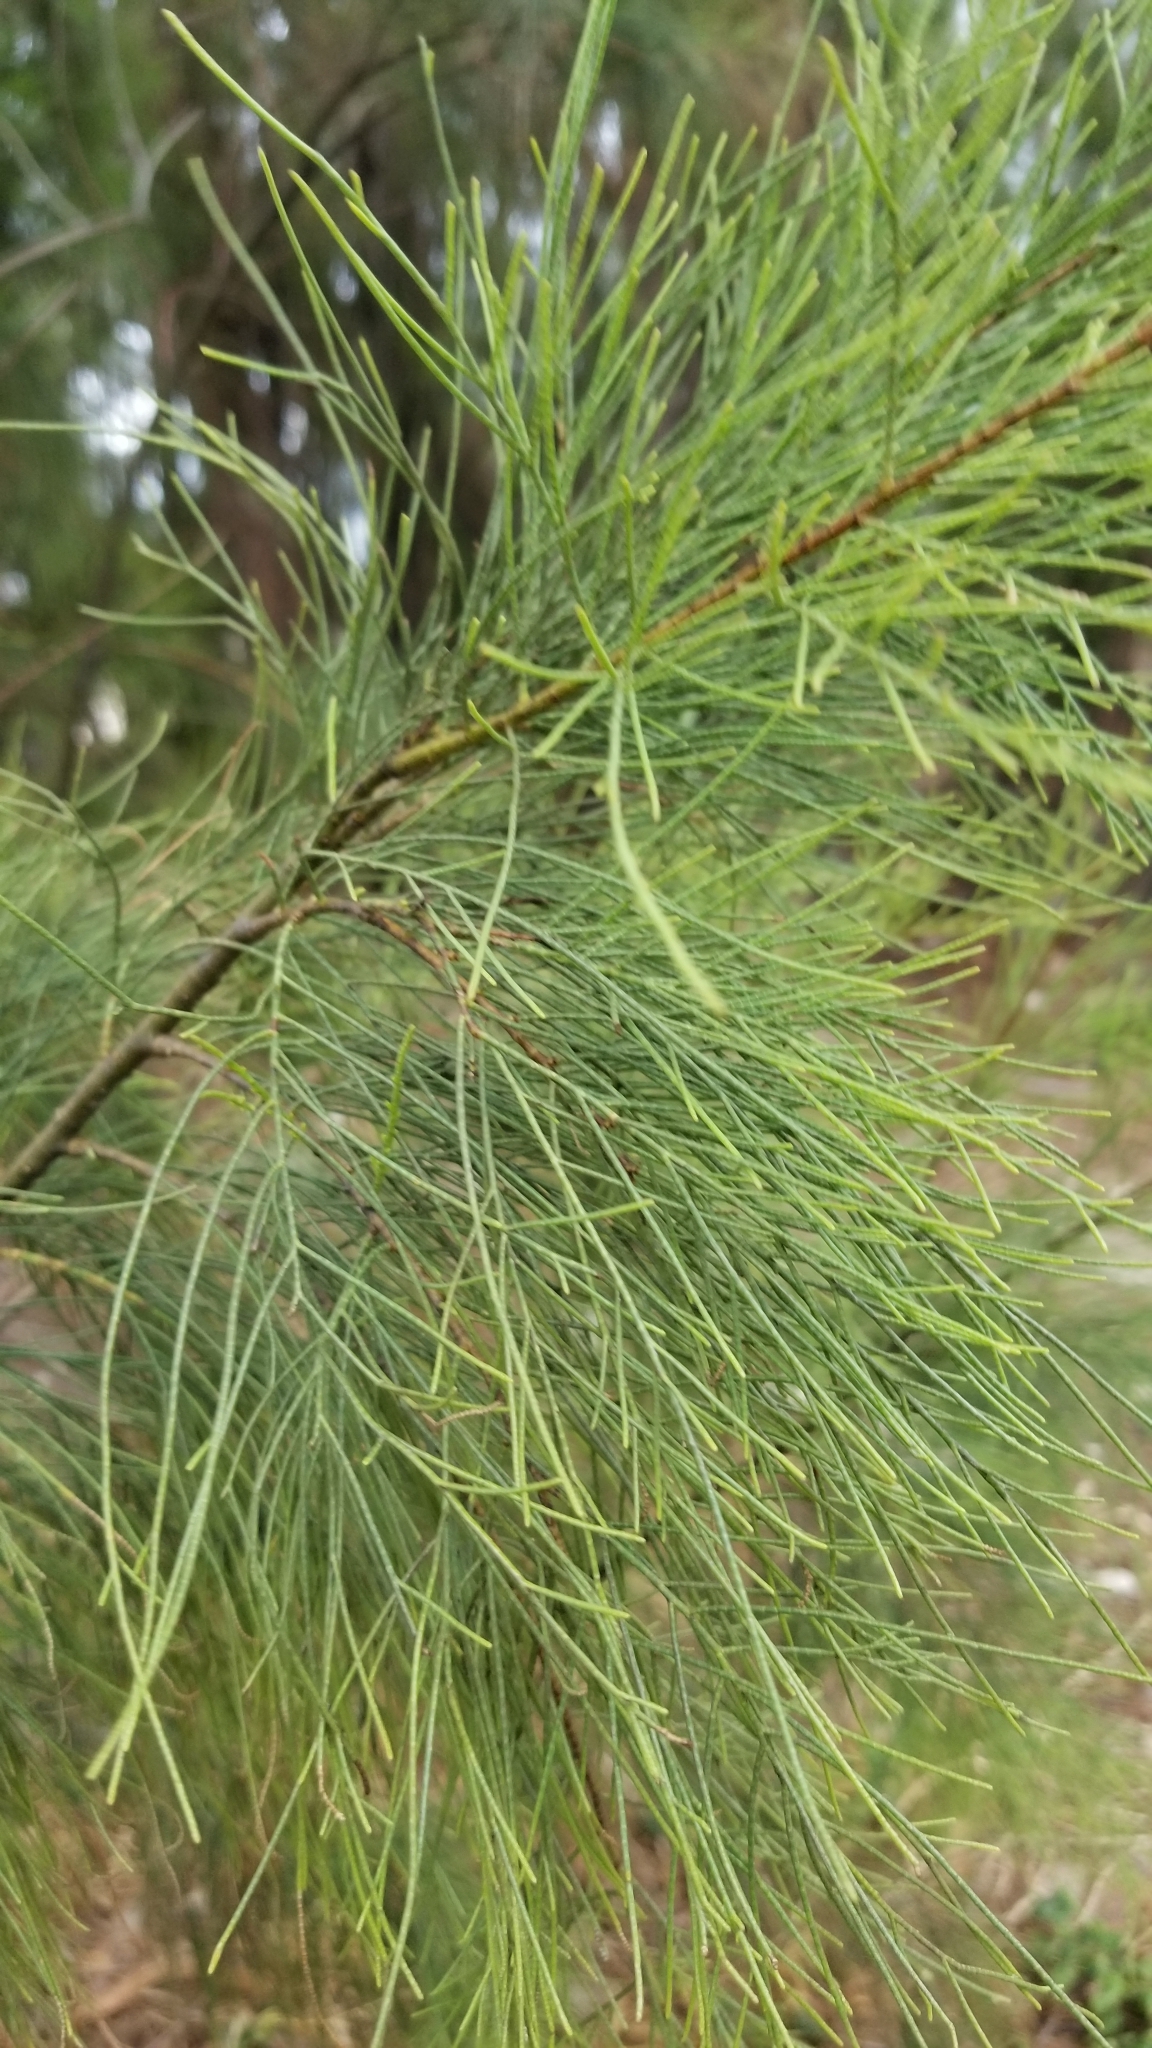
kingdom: Plantae
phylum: Tracheophyta
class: Magnoliopsida
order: Caryophyllales
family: Tamaricaceae
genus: Tamarix
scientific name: Tamarix aphylla
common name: Athel tamarisk
